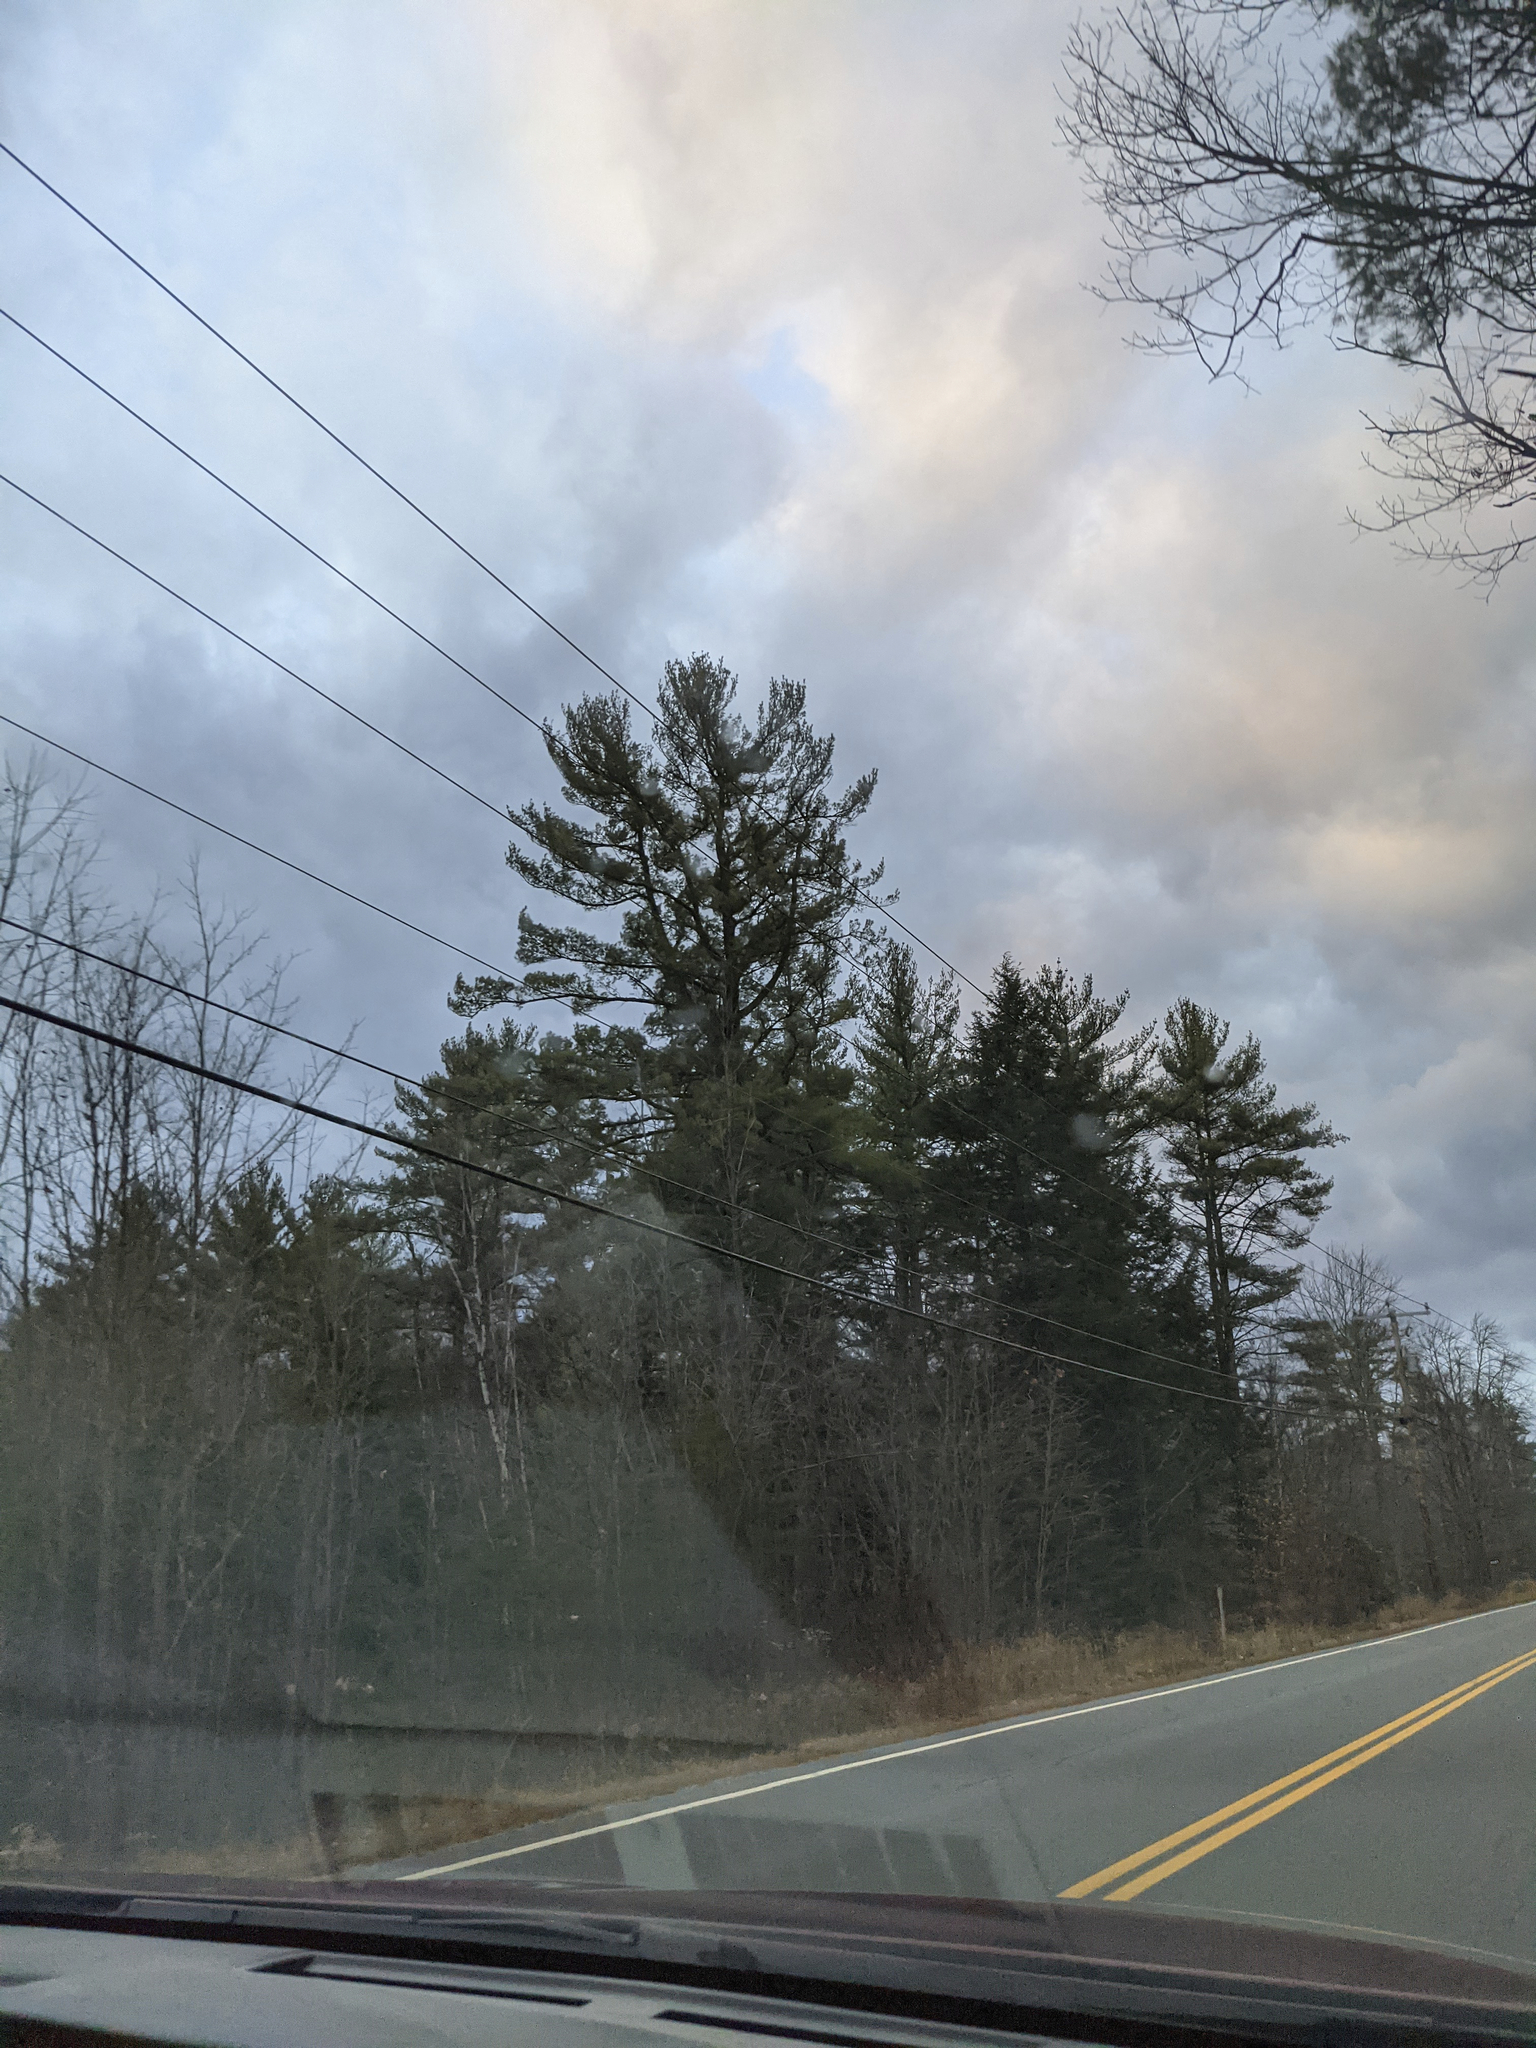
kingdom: Plantae
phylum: Tracheophyta
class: Pinopsida
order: Pinales
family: Pinaceae
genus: Pinus
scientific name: Pinus strobus
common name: Weymouth pine
